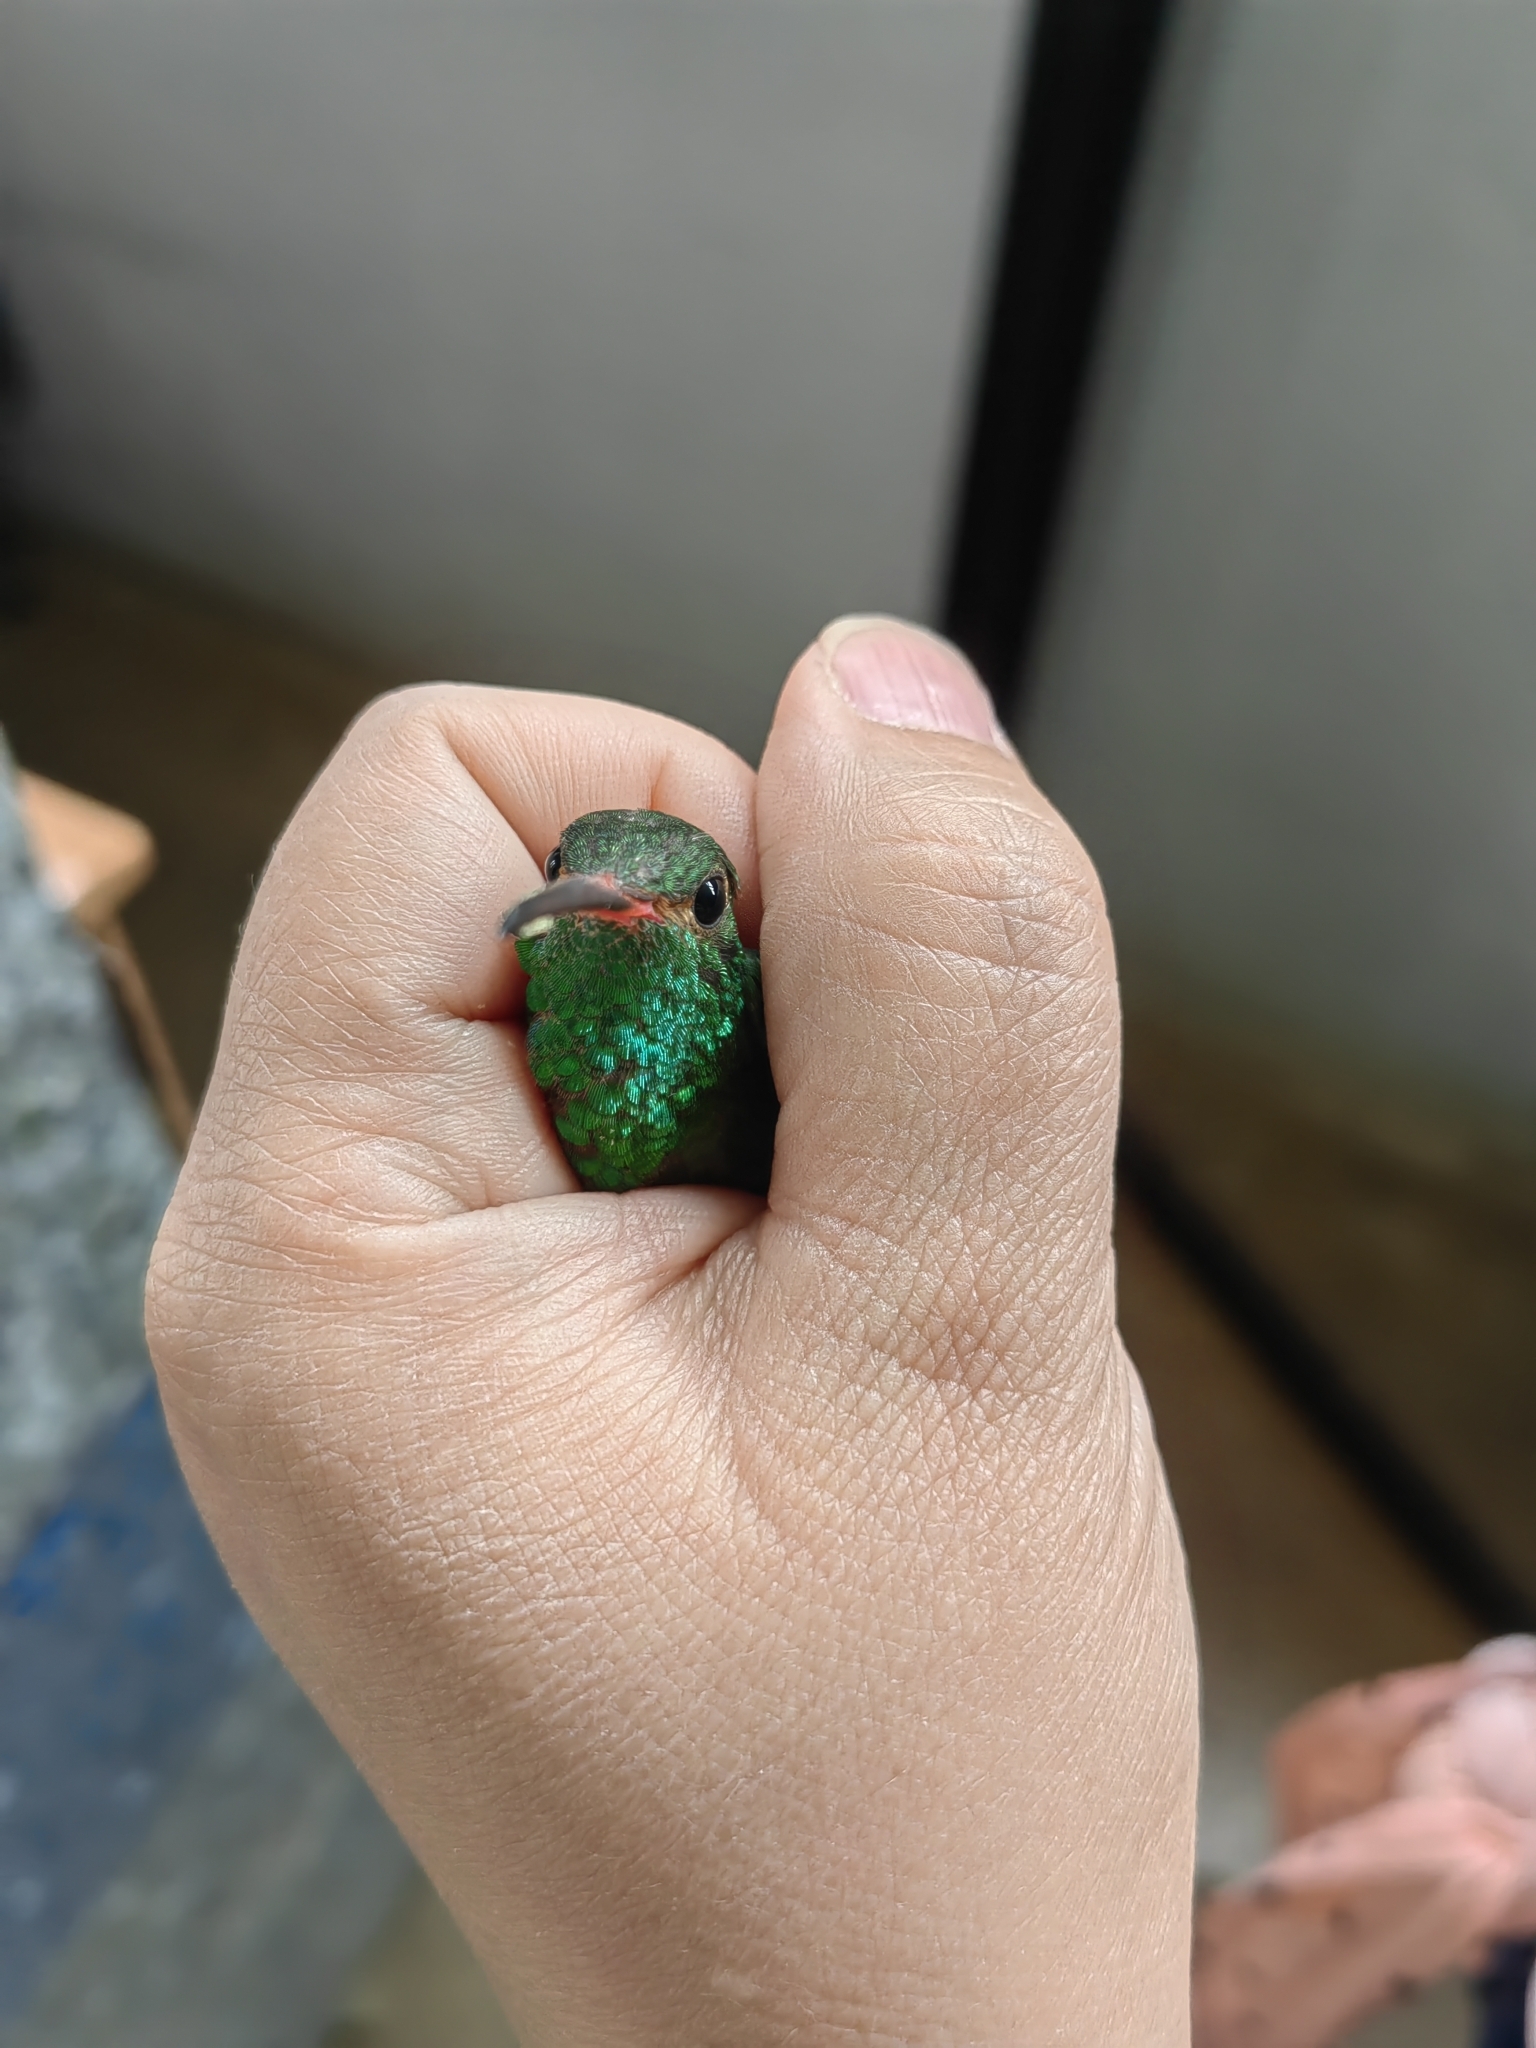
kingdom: Animalia
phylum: Chordata
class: Aves
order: Apodiformes
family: Trochilidae
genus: Amazilia
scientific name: Amazilia tzacatl
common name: Rufous-tailed hummingbird
